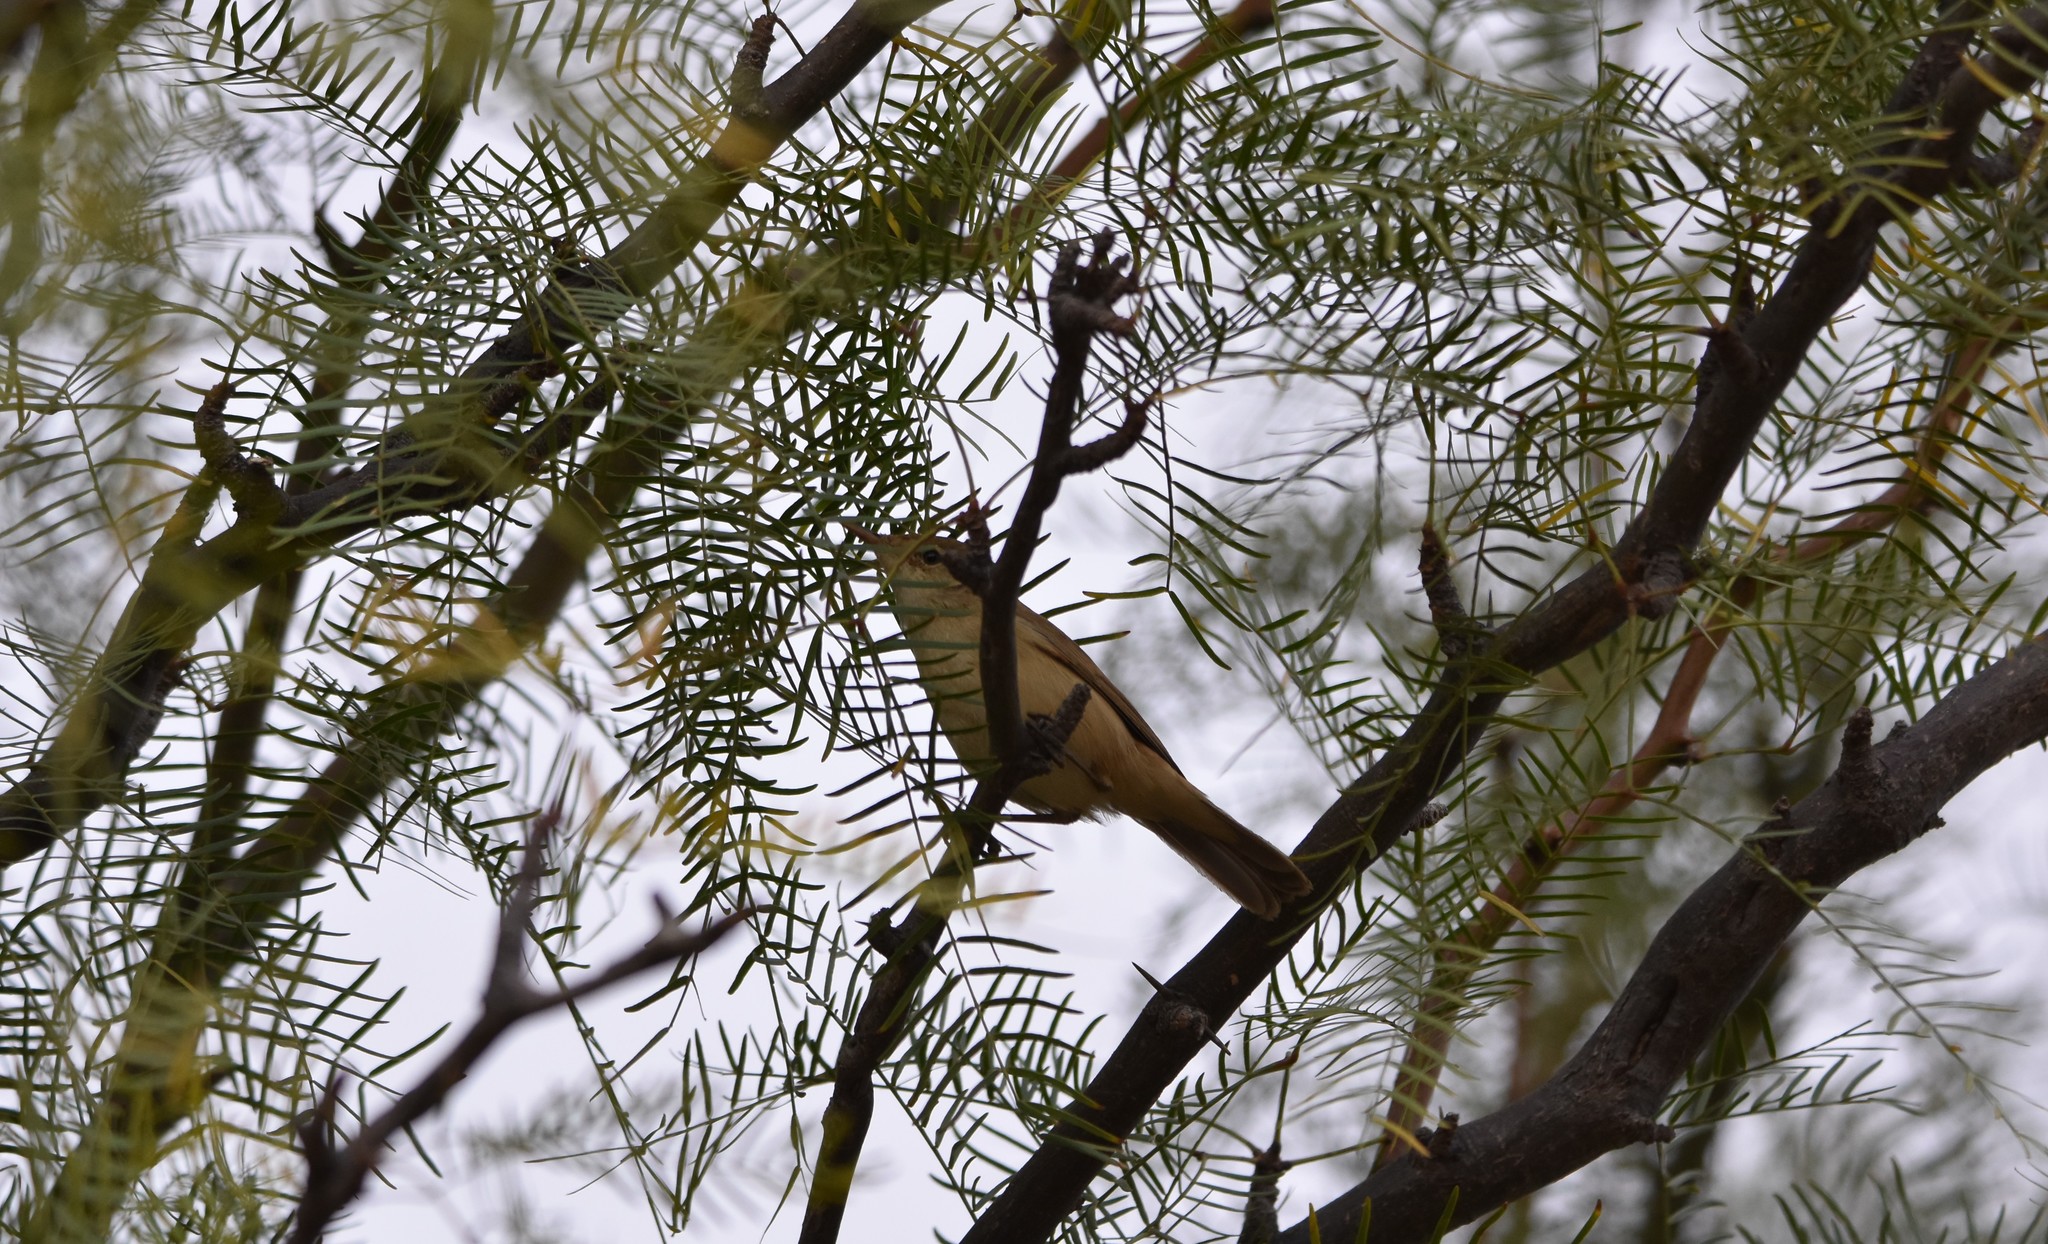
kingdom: Animalia
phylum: Chordata
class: Aves
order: Passeriformes
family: Acrocephalidae
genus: Acrocephalus
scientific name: Acrocephalus scirpaceus
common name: Eurasian reed warbler
